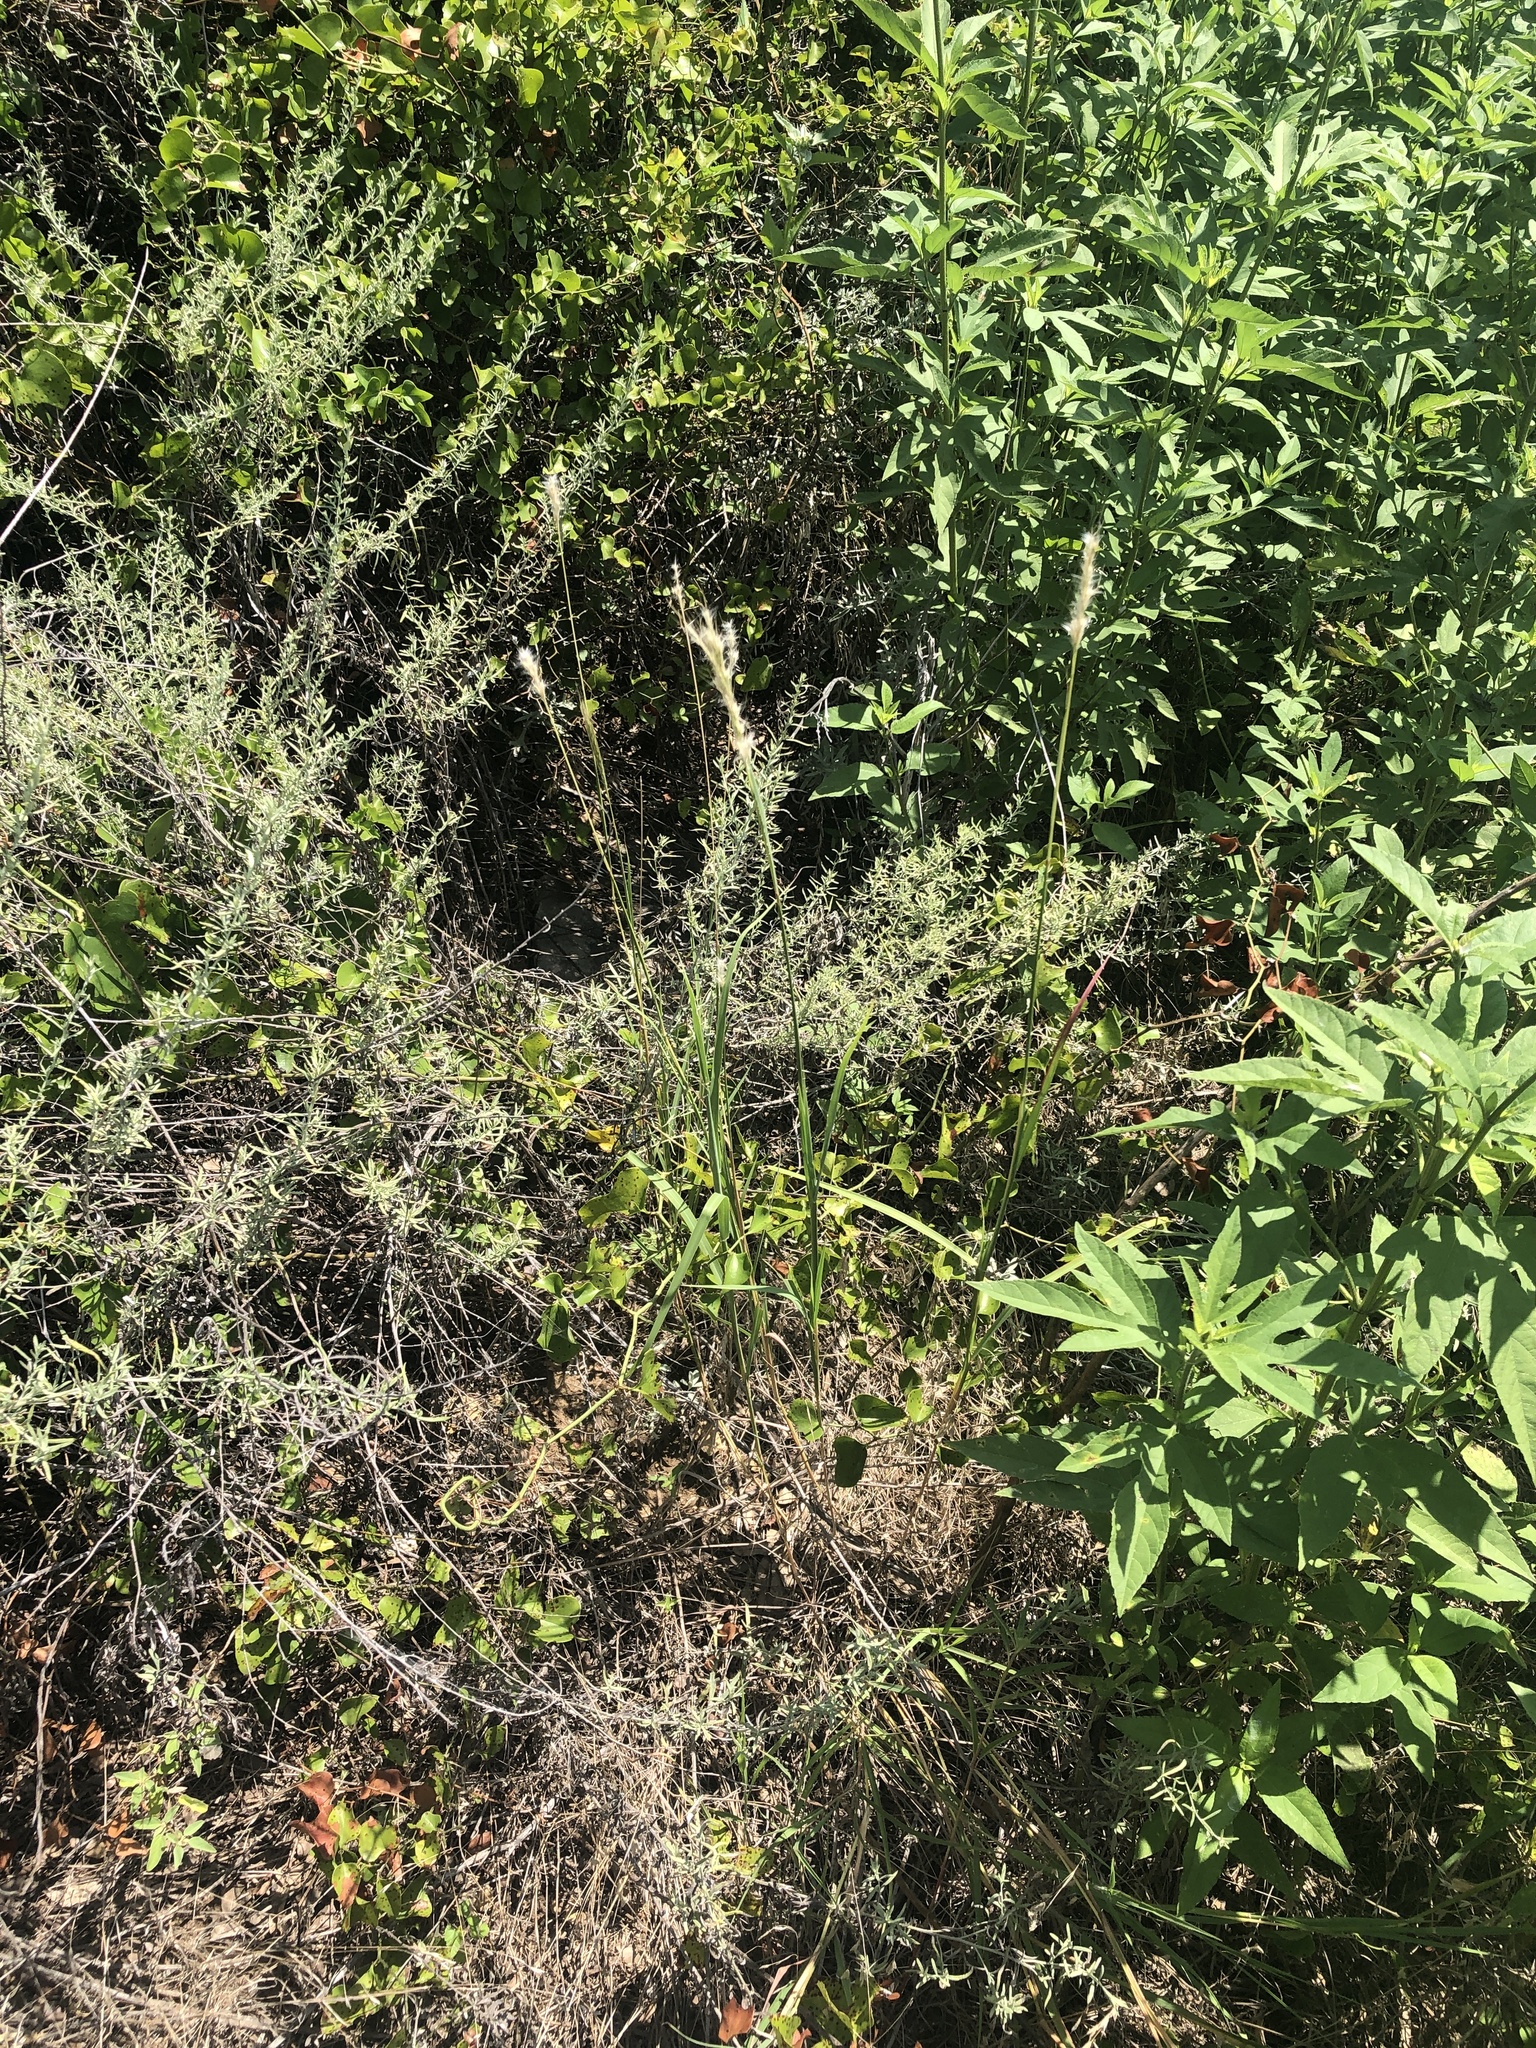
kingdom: Plantae
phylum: Tracheophyta
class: Liliopsida
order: Poales
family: Poaceae
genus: Bothriochloa
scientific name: Bothriochloa torreyana
